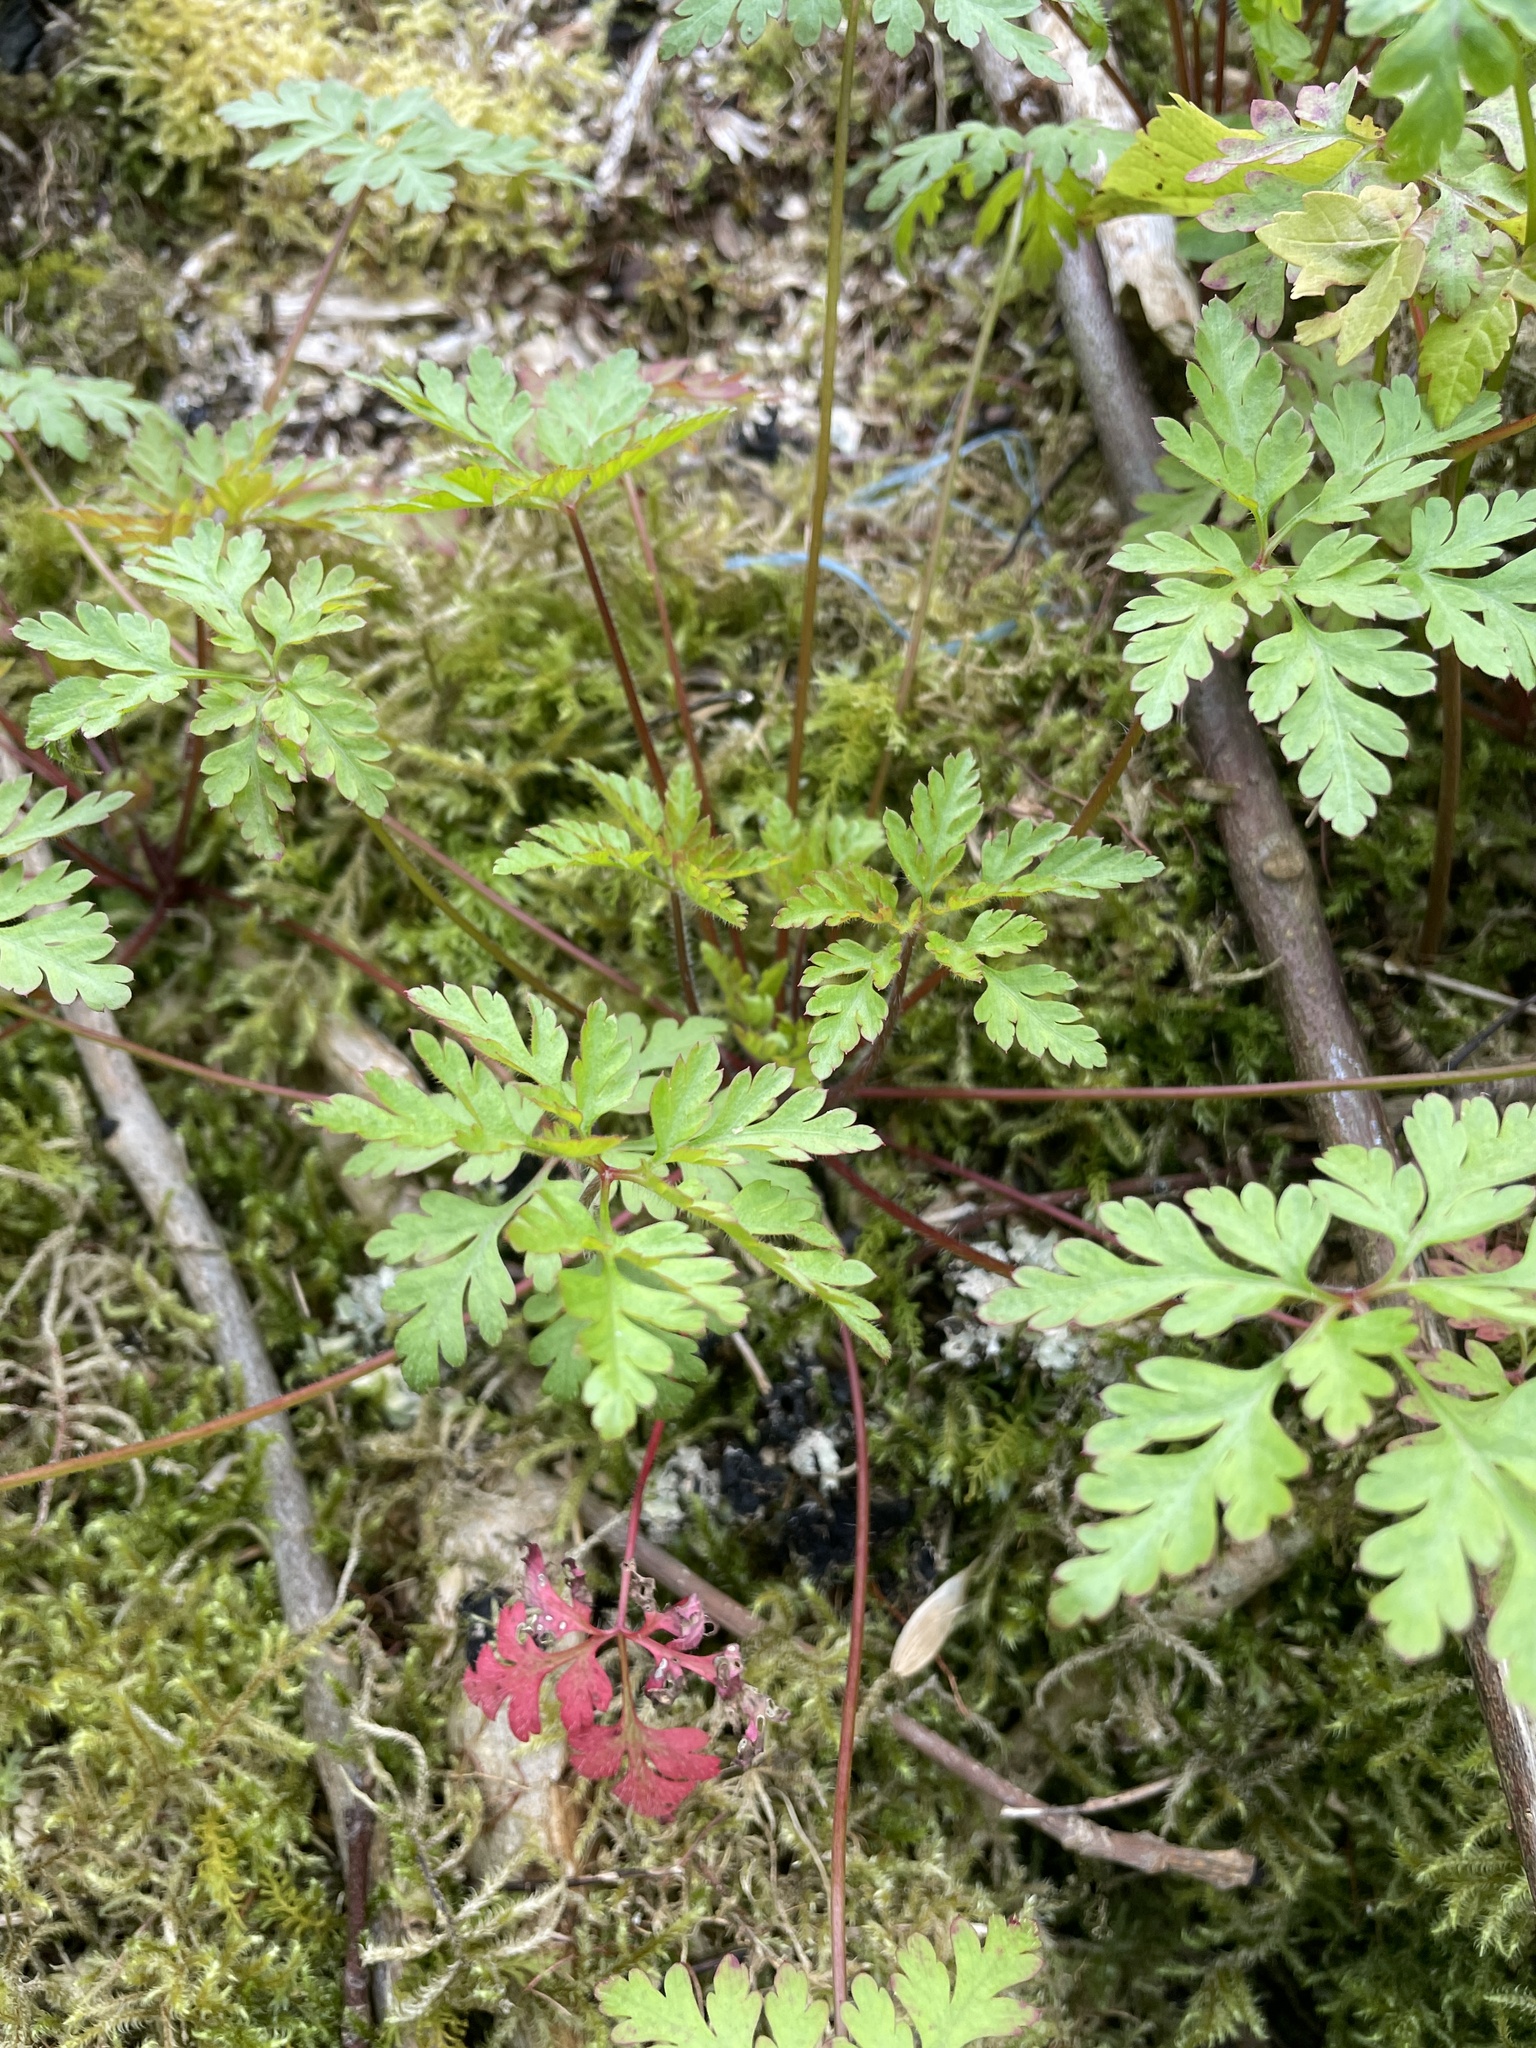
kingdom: Plantae
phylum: Tracheophyta
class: Magnoliopsida
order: Geraniales
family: Geraniaceae
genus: Geranium
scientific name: Geranium robertianum
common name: Herb-robert
